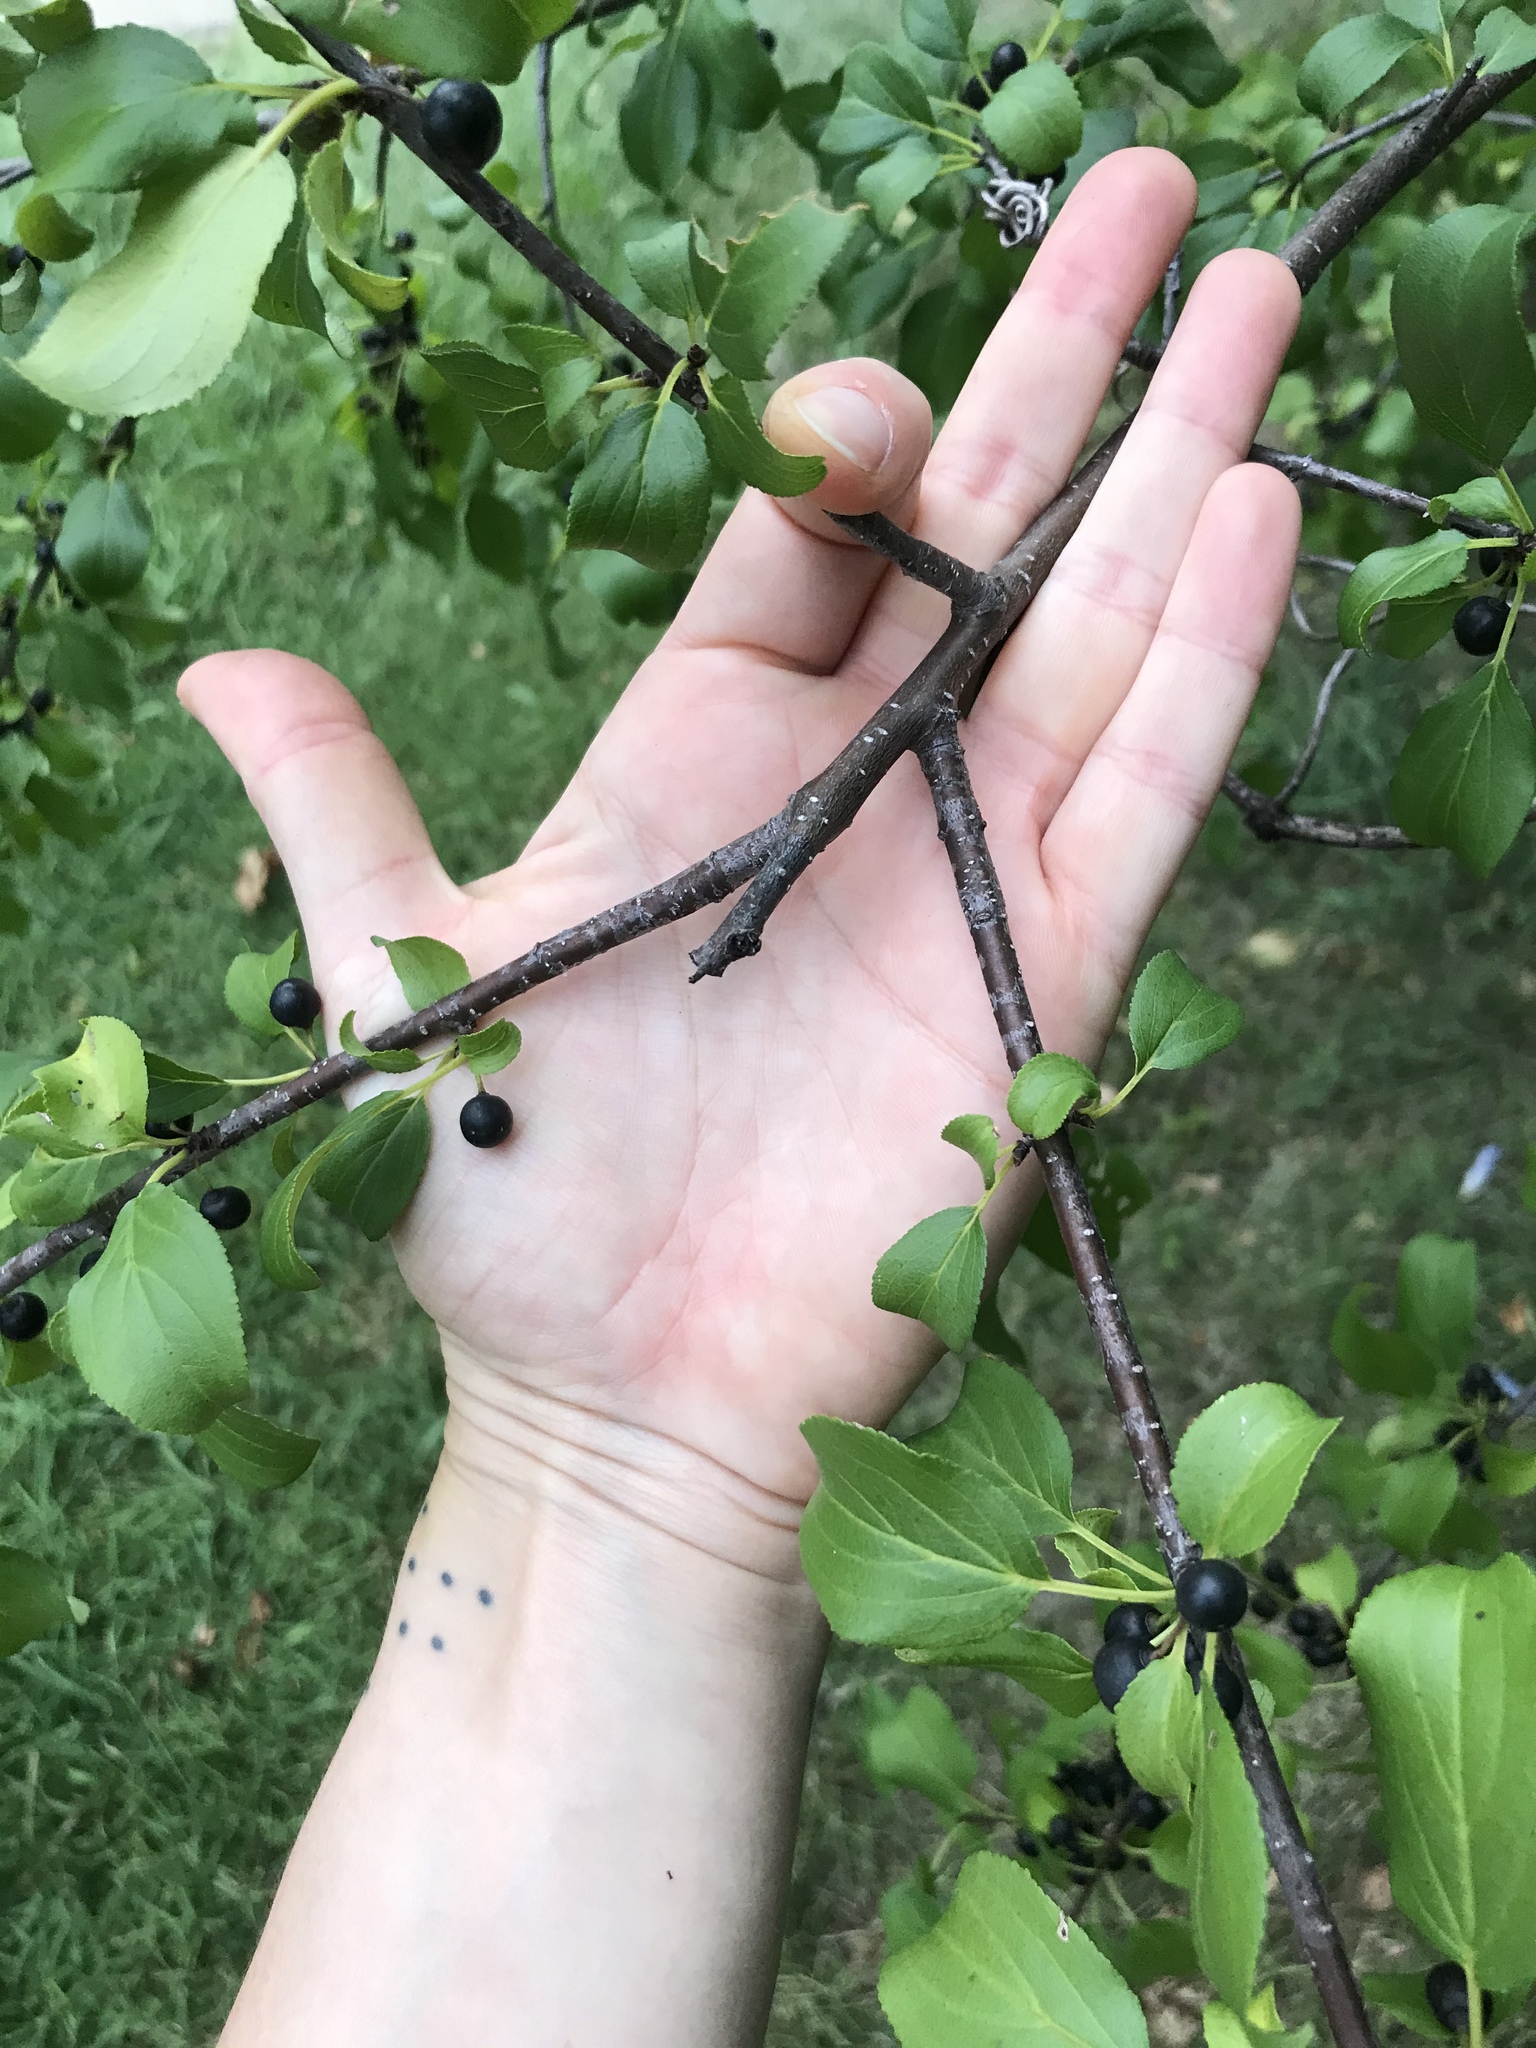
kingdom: Plantae
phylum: Tracheophyta
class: Magnoliopsida
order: Rosales
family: Rhamnaceae
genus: Rhamnus
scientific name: Rhamnus cathartica
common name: Common buckthorn
